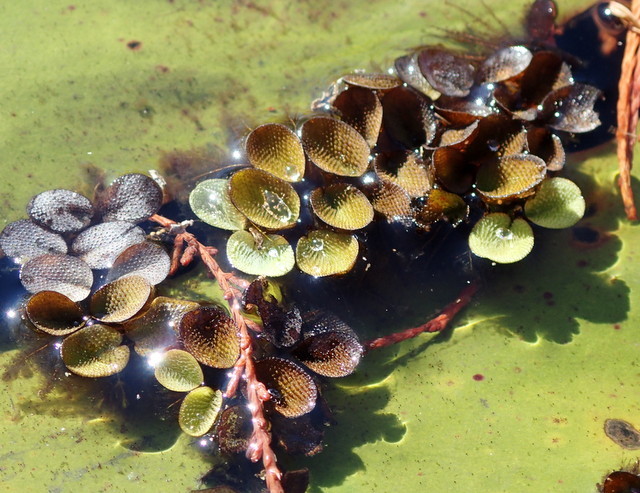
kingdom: Plantae
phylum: Tracheophyta
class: Polypodiopsida
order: Salviniales
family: Salviniaceae
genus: Salvinia
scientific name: Salvinia minima
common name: Water spangles
